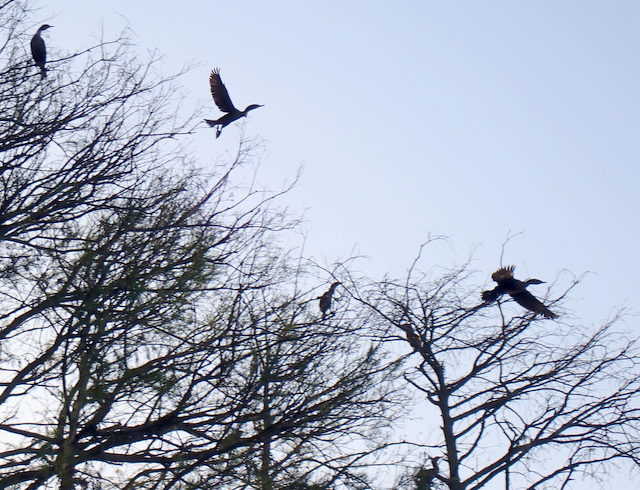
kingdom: Animalia
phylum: Chordata
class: Aves
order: Suliformes
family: Phalacrocoracidae
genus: Phalacrocorax
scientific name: Phalacrocorax auritus
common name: Double-crested cormorant
